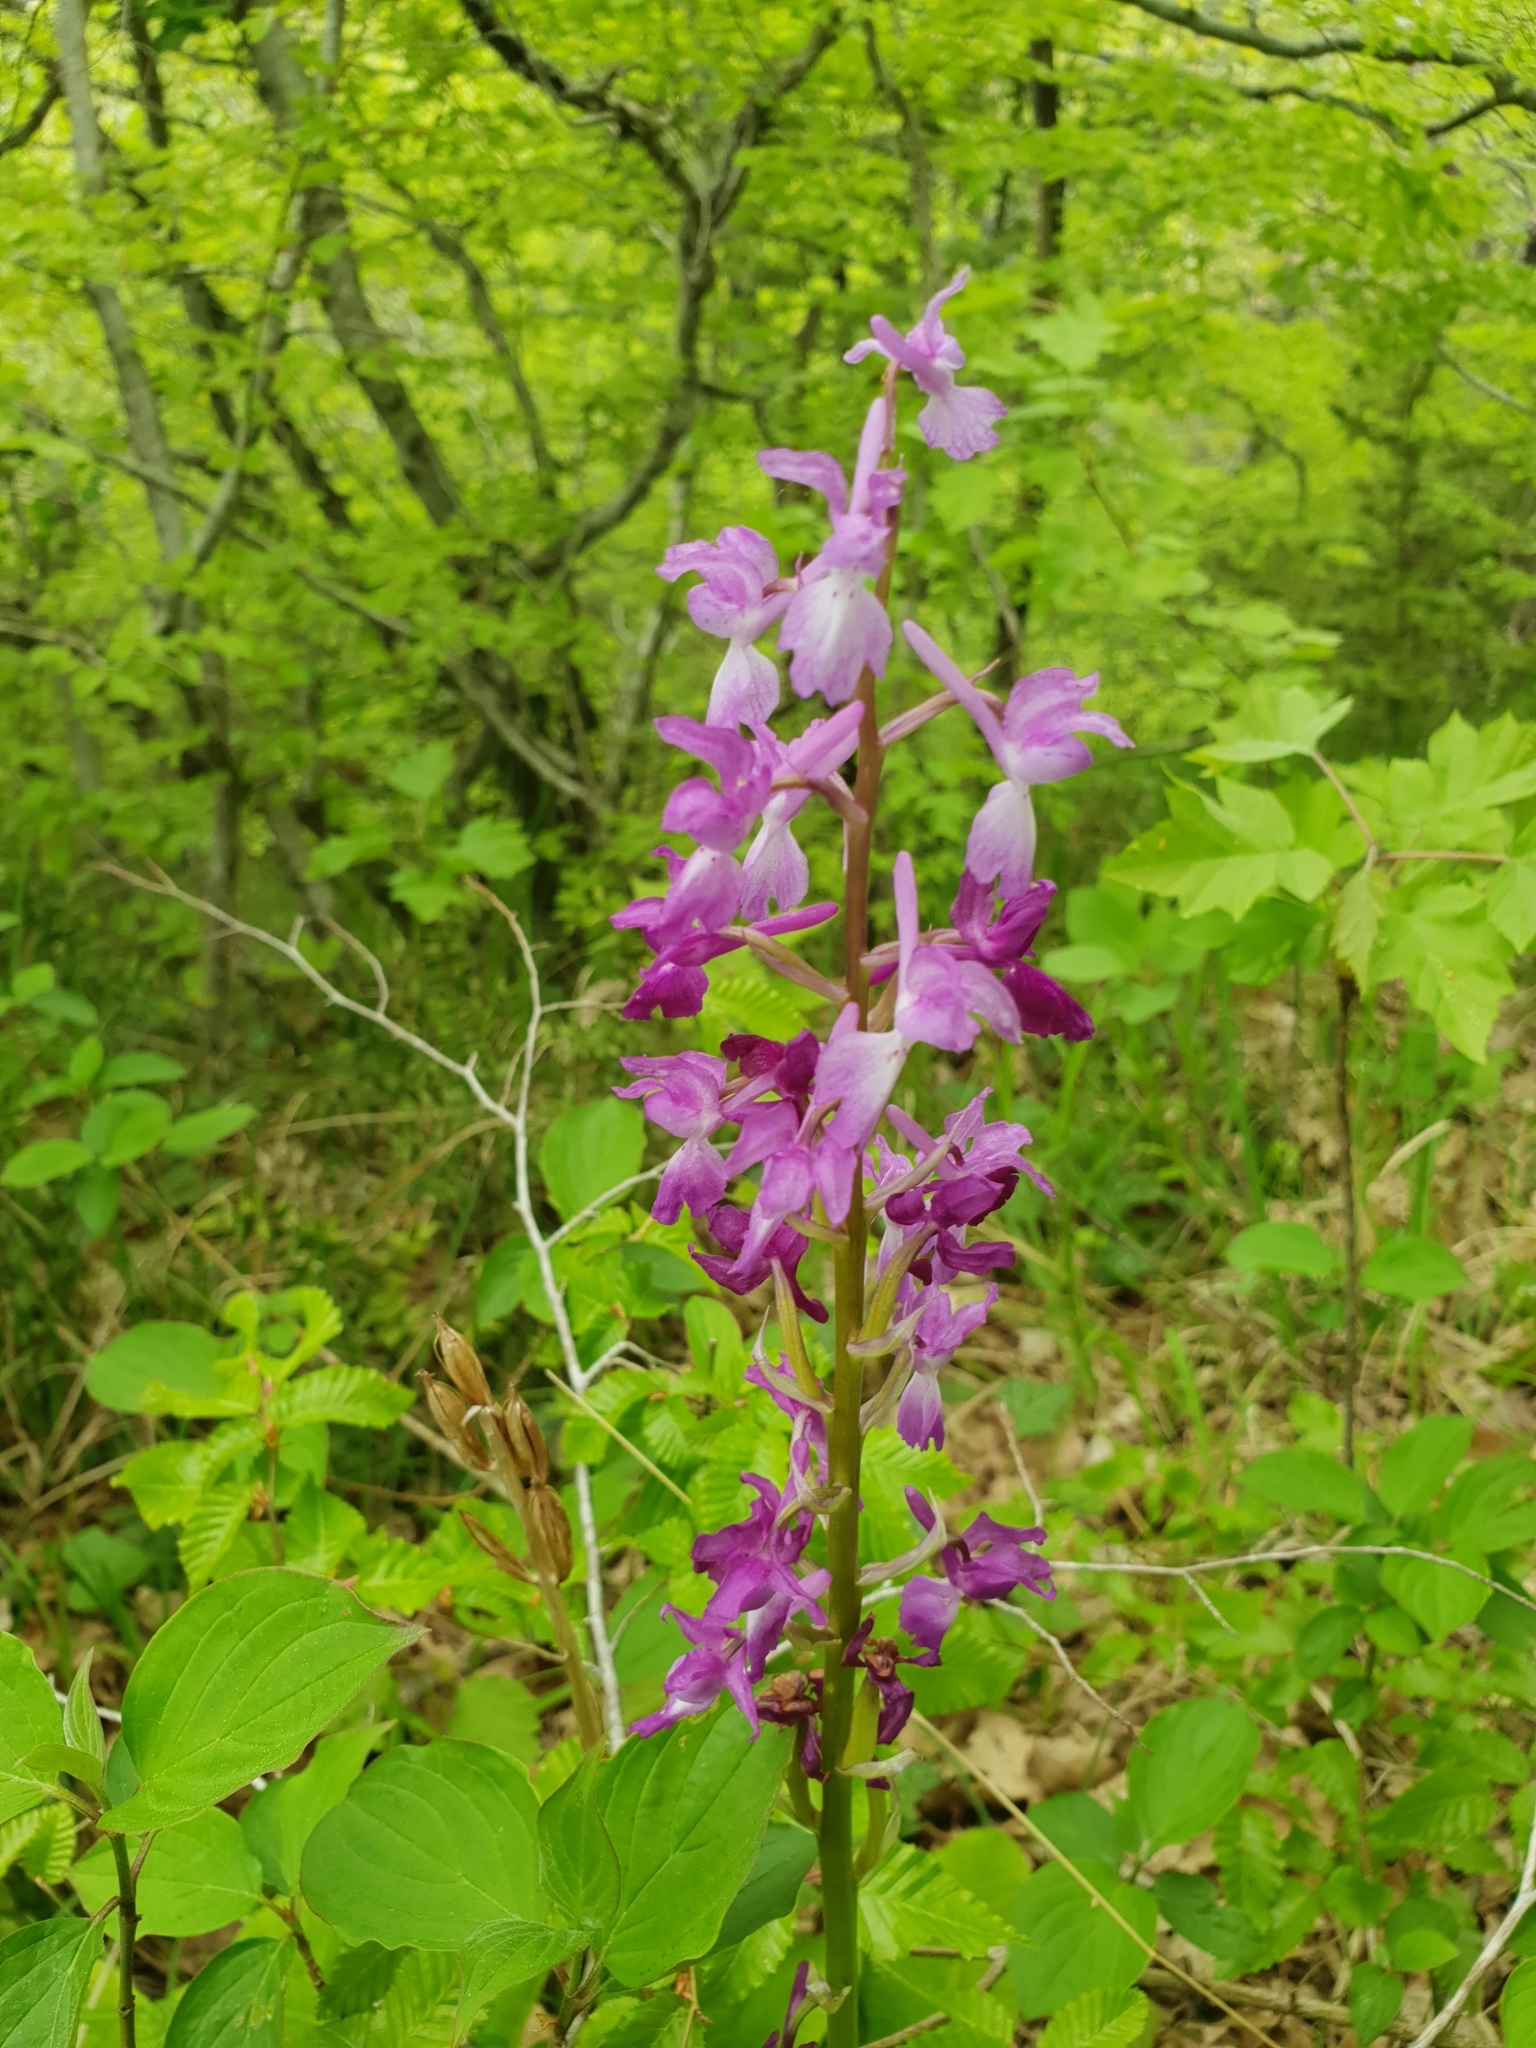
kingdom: Plantae
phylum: Tracheophyta
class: Liliopsida
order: Asparagales
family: Orchidaceae
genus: Orchis
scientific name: Orchis mascula
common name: Early-purple orchid
